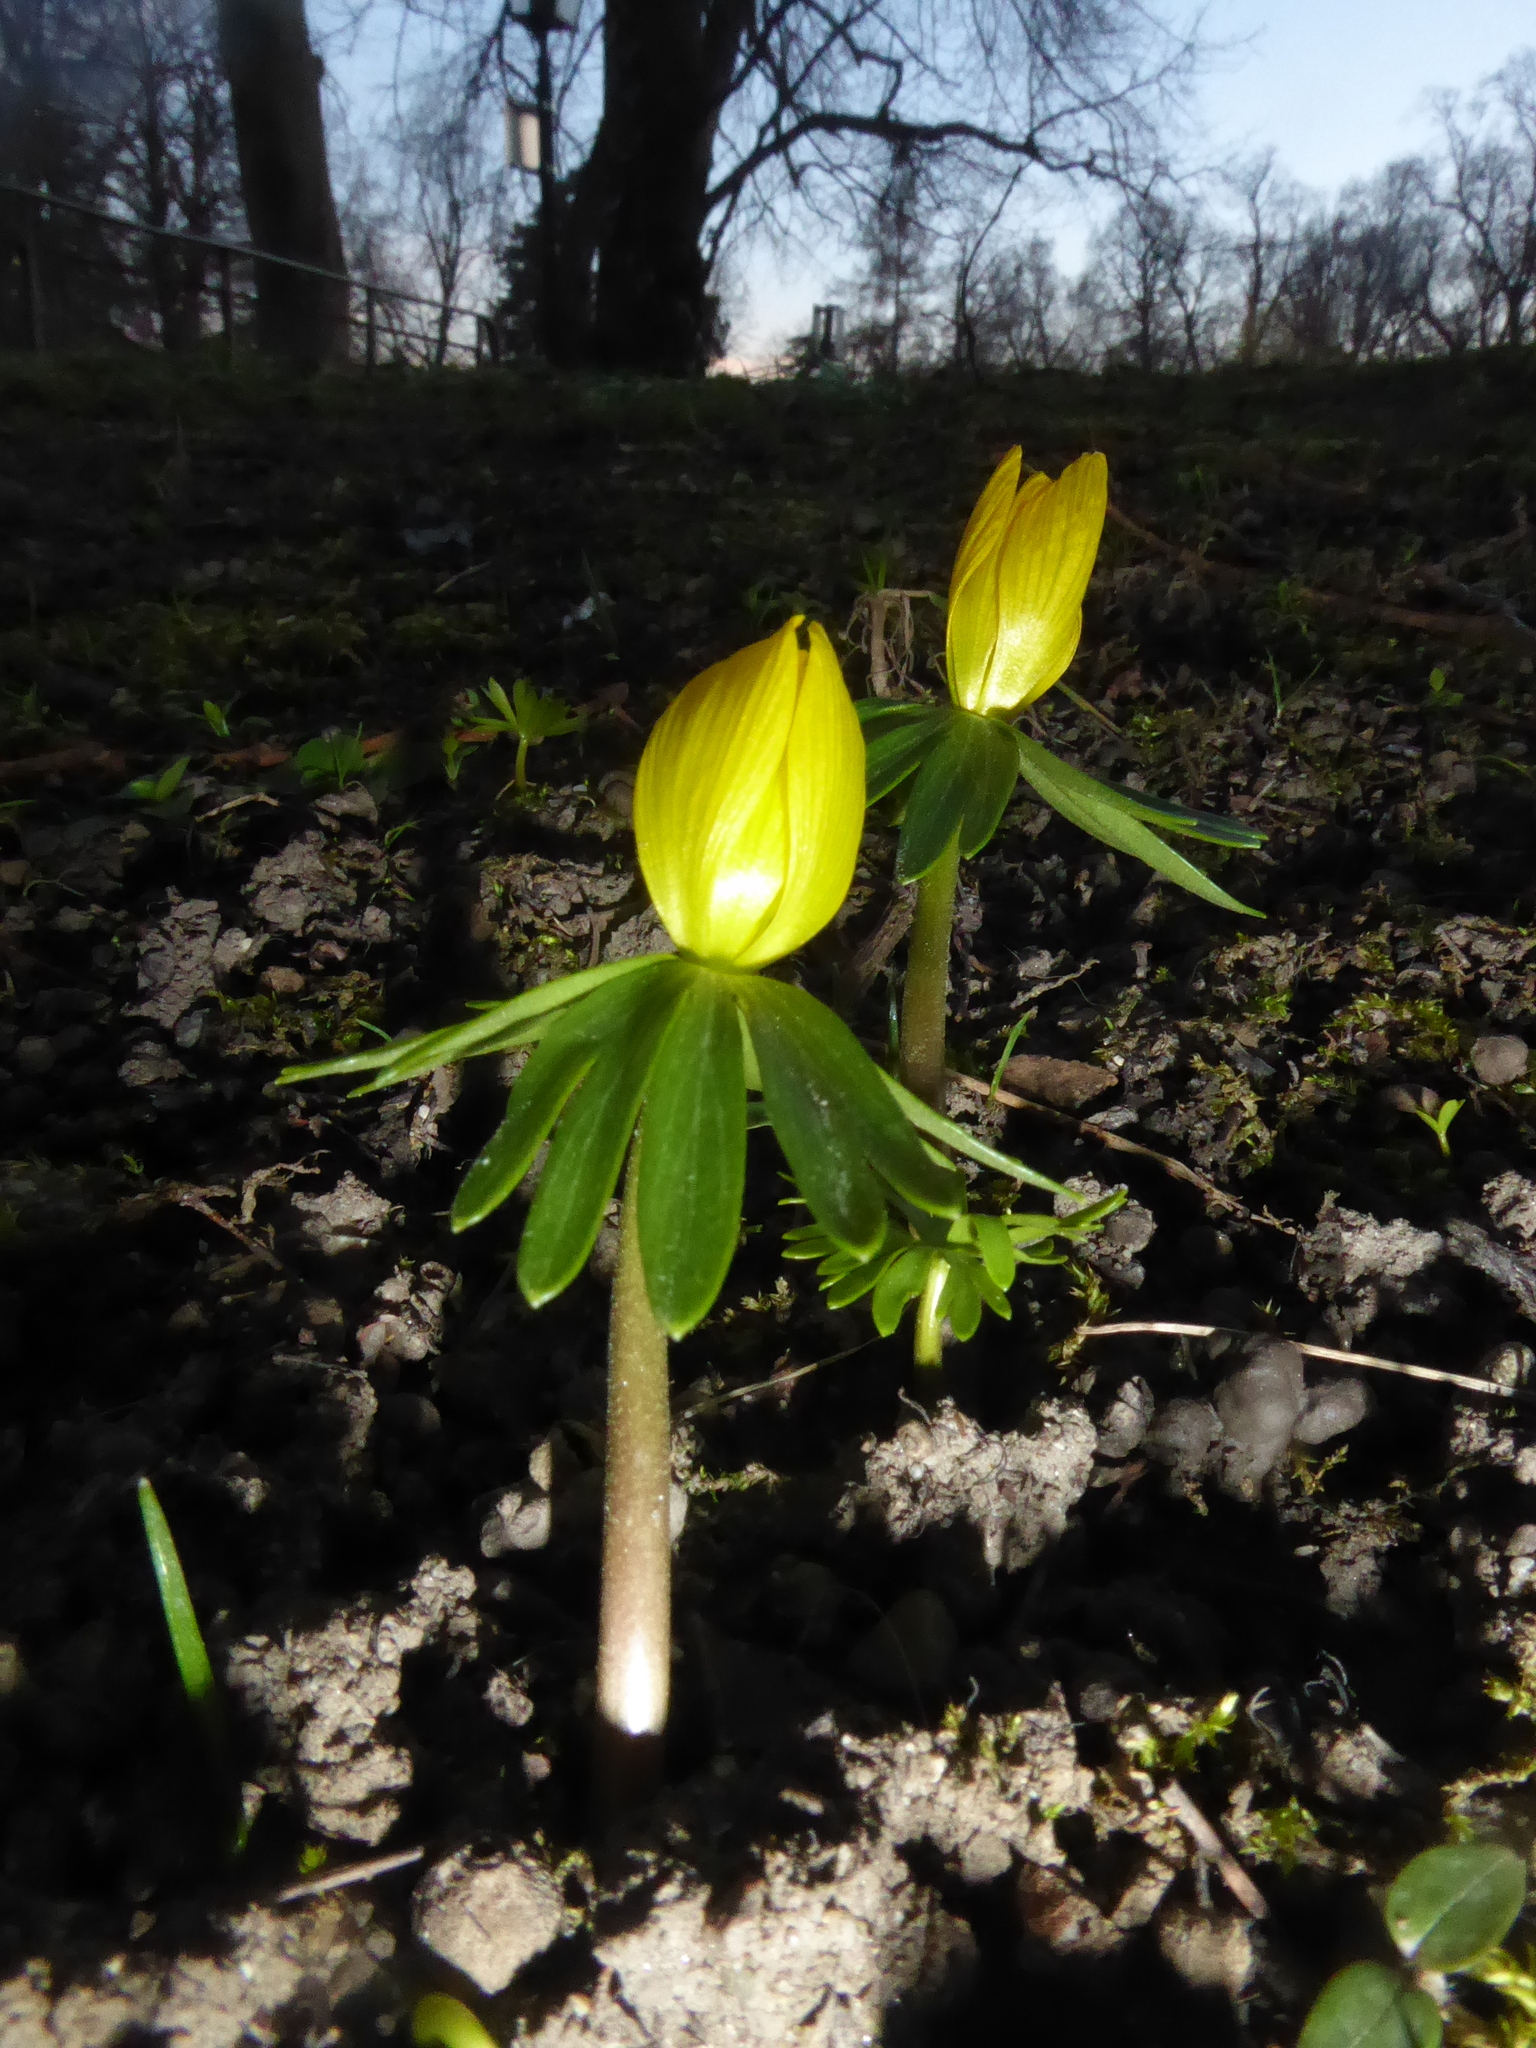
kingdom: Plantae
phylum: Tracheophyta
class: Magnoliopsida
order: Ranunculales
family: Ranunculaceae
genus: Eranthis
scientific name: Eranthis hyemalis
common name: Winter aconite
